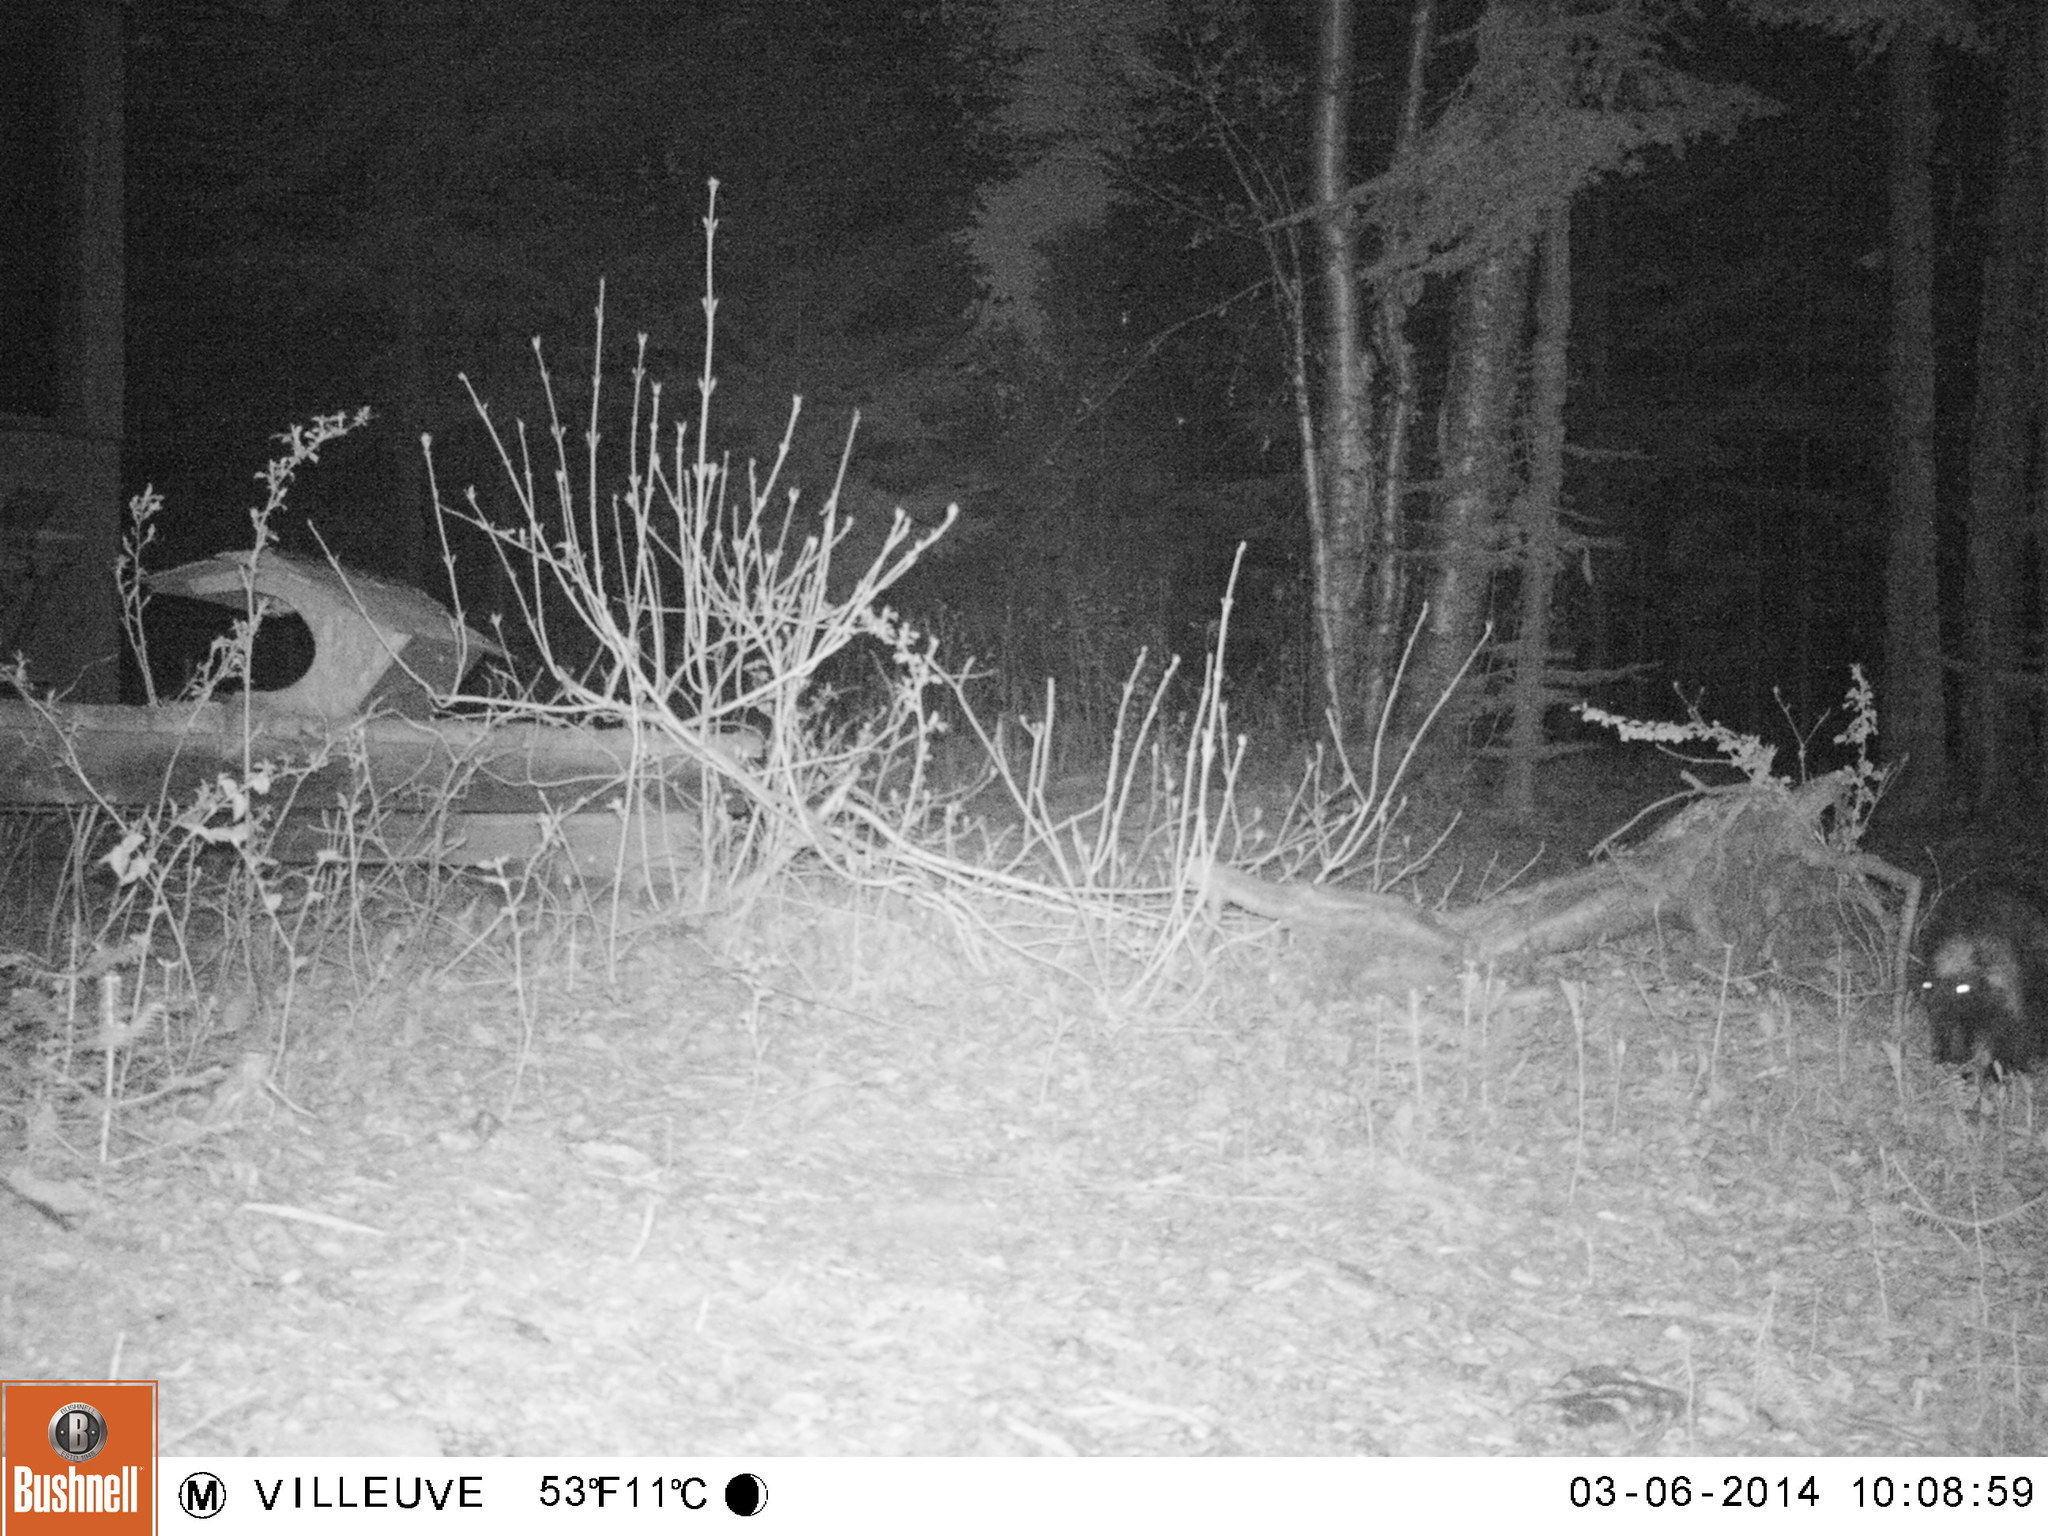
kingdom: Animalia
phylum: Chordata
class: Mammalia
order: Rodentia
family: Erethizontidae
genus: Erethizon
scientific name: Erethizon dorsatus
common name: North american porcupine
